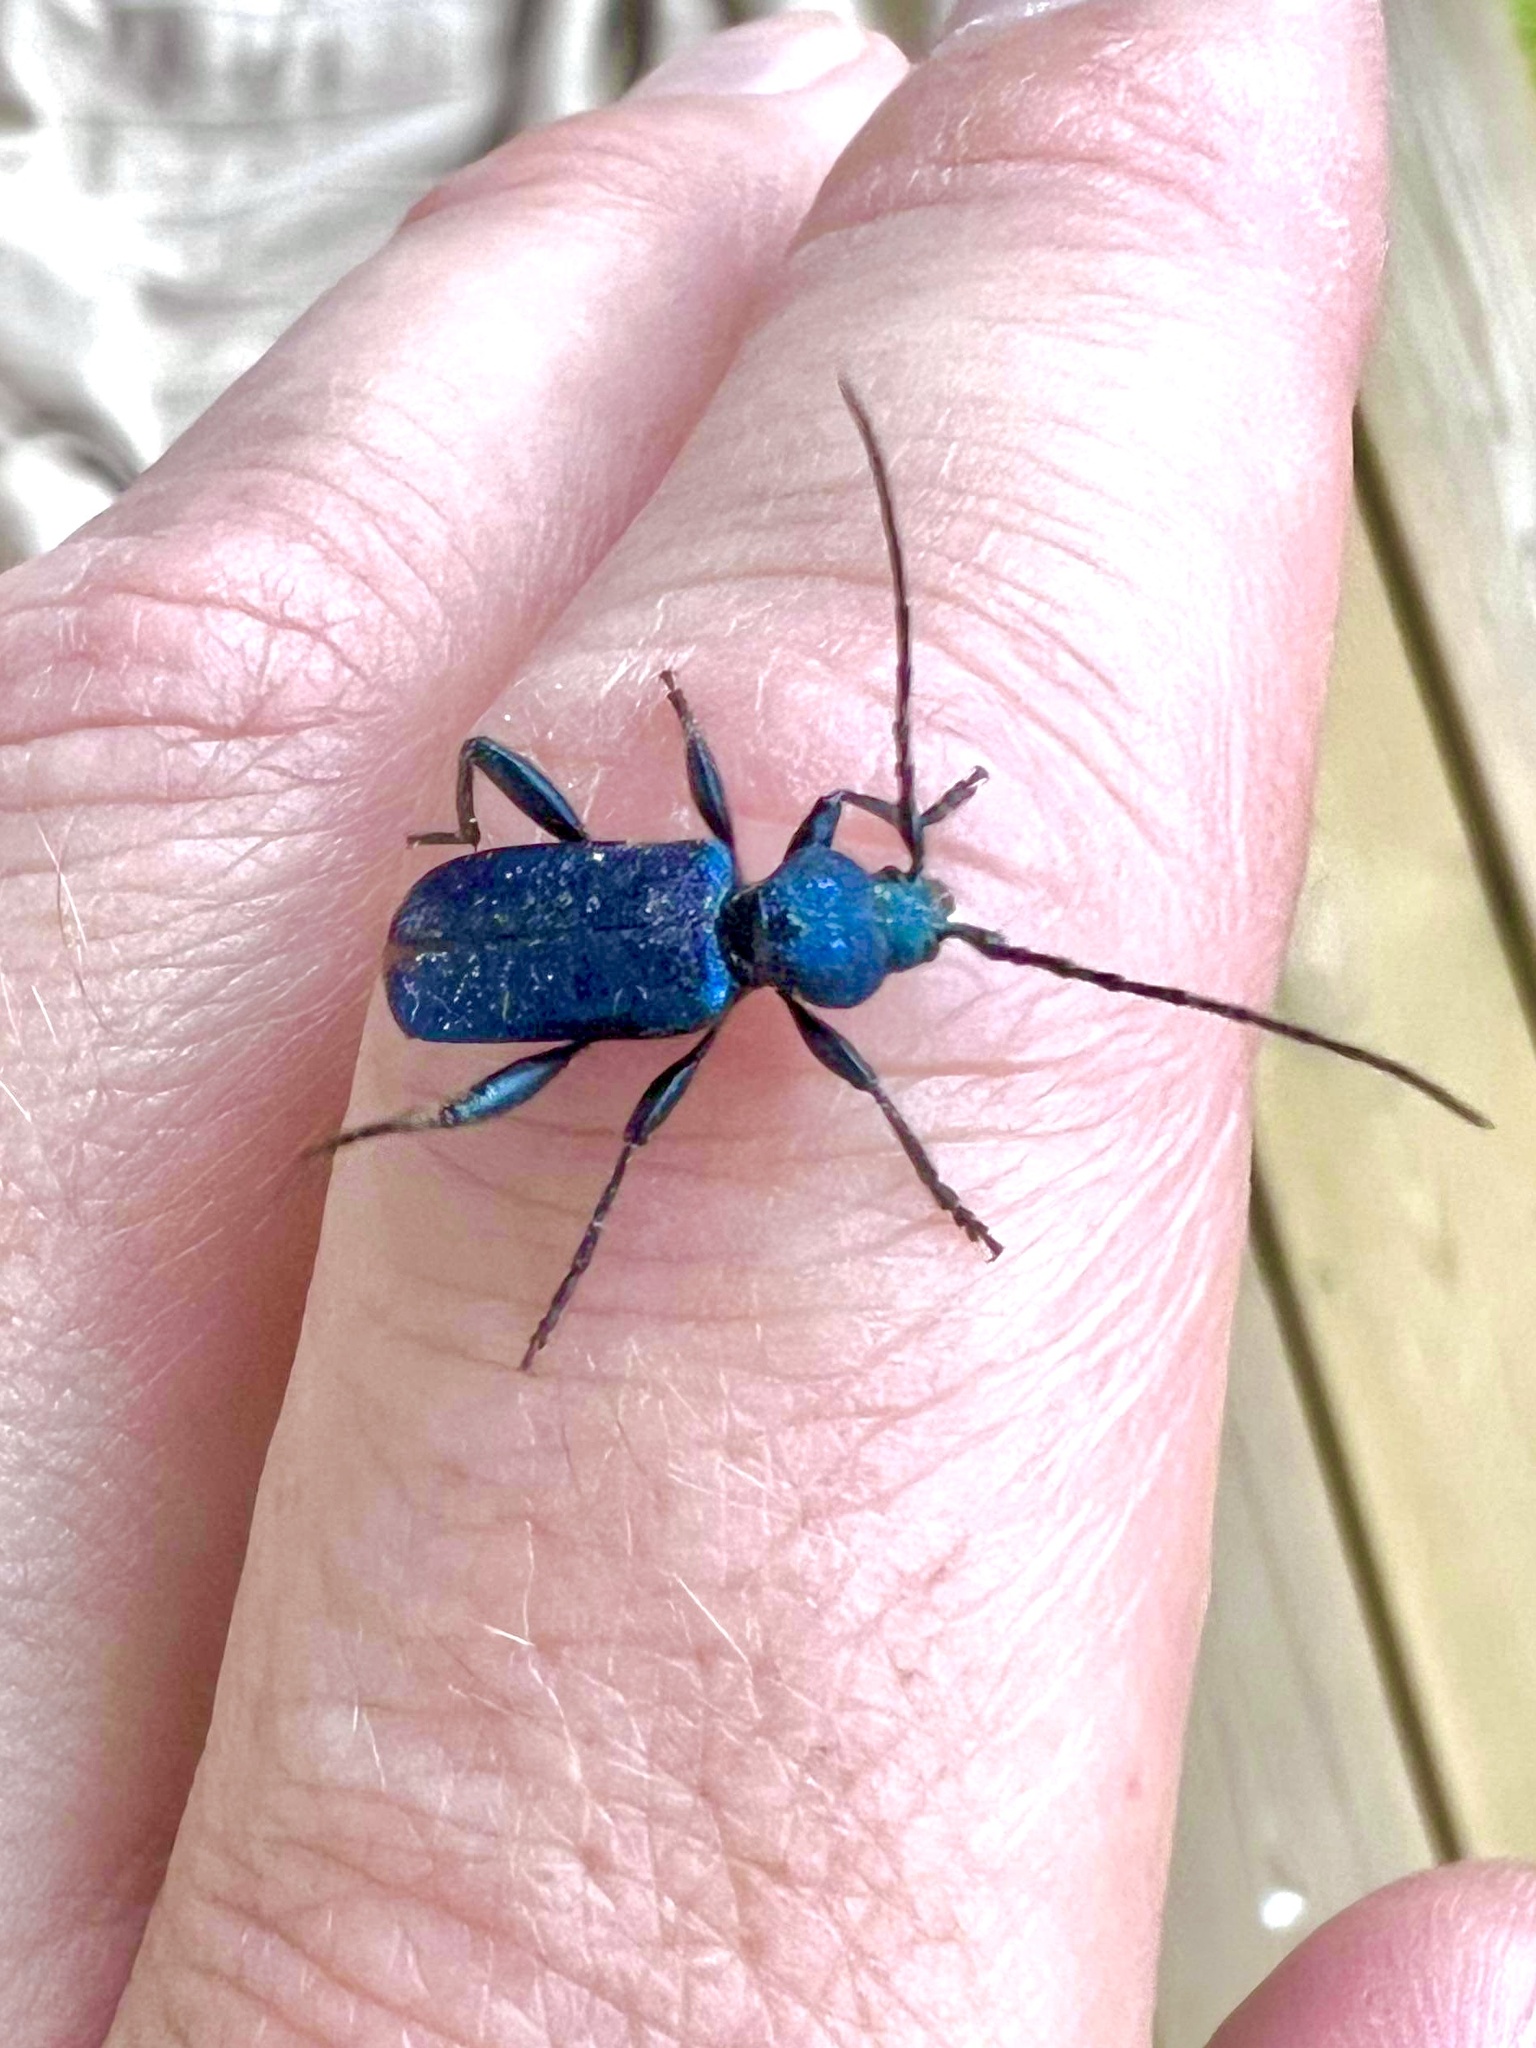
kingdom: Animalia
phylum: Arthropoda
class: Insecta
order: Coleoptera
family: Cerambycidae
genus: Callidium
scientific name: Callidium violaceum
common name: Violet tanbark beetle
